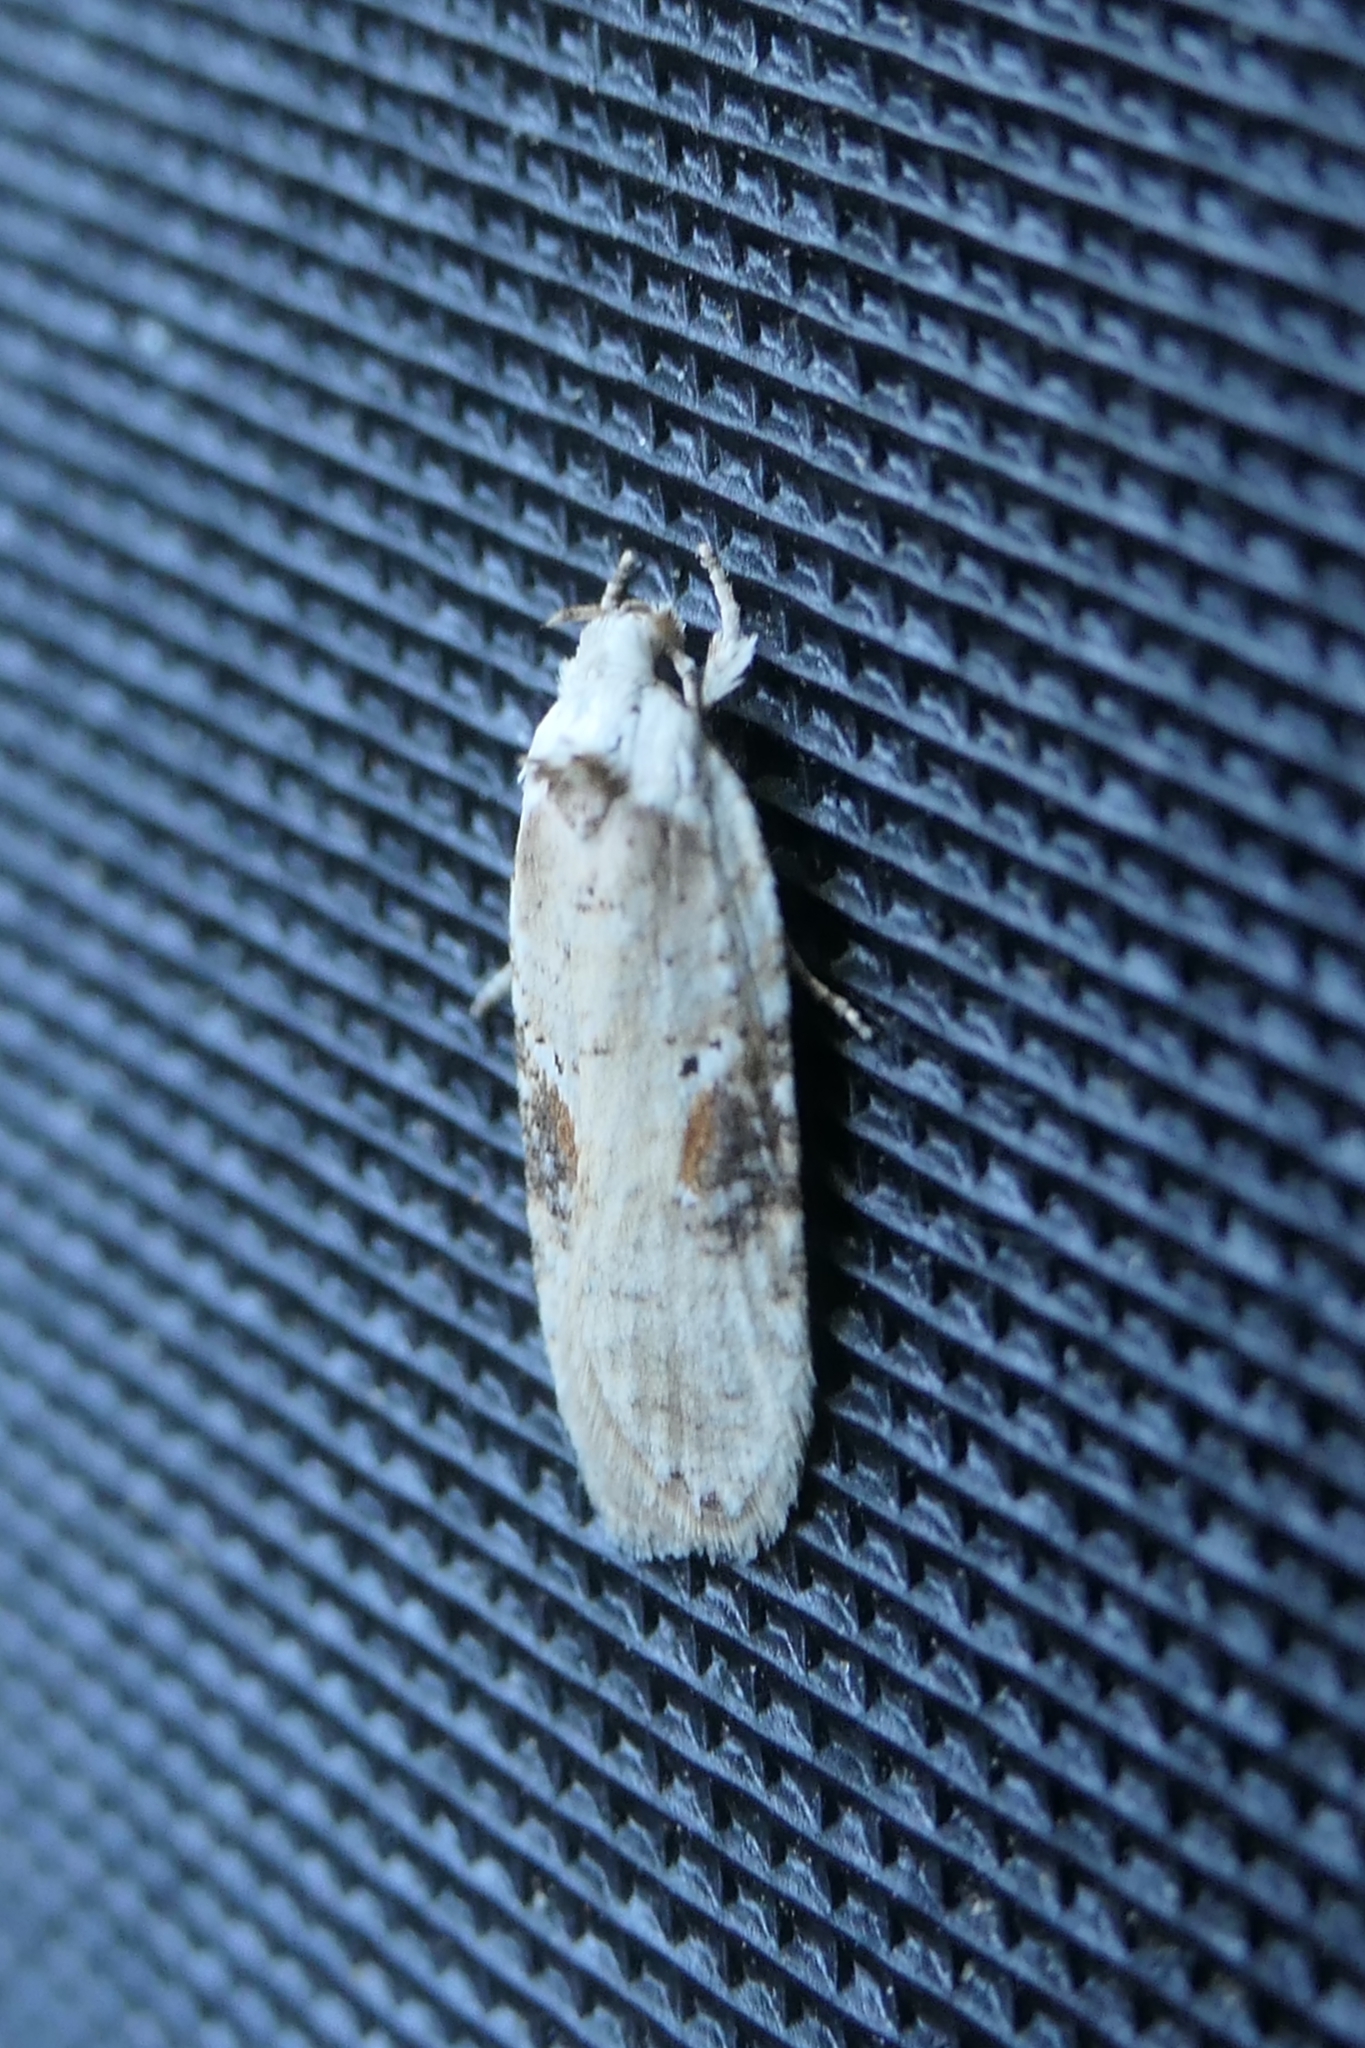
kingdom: Animalia
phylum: Arthropoda
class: Insecta
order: Lepidoptera
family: Depressariidae
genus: Agonopterix
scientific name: Agonopterix alstroemeriana
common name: Moth
